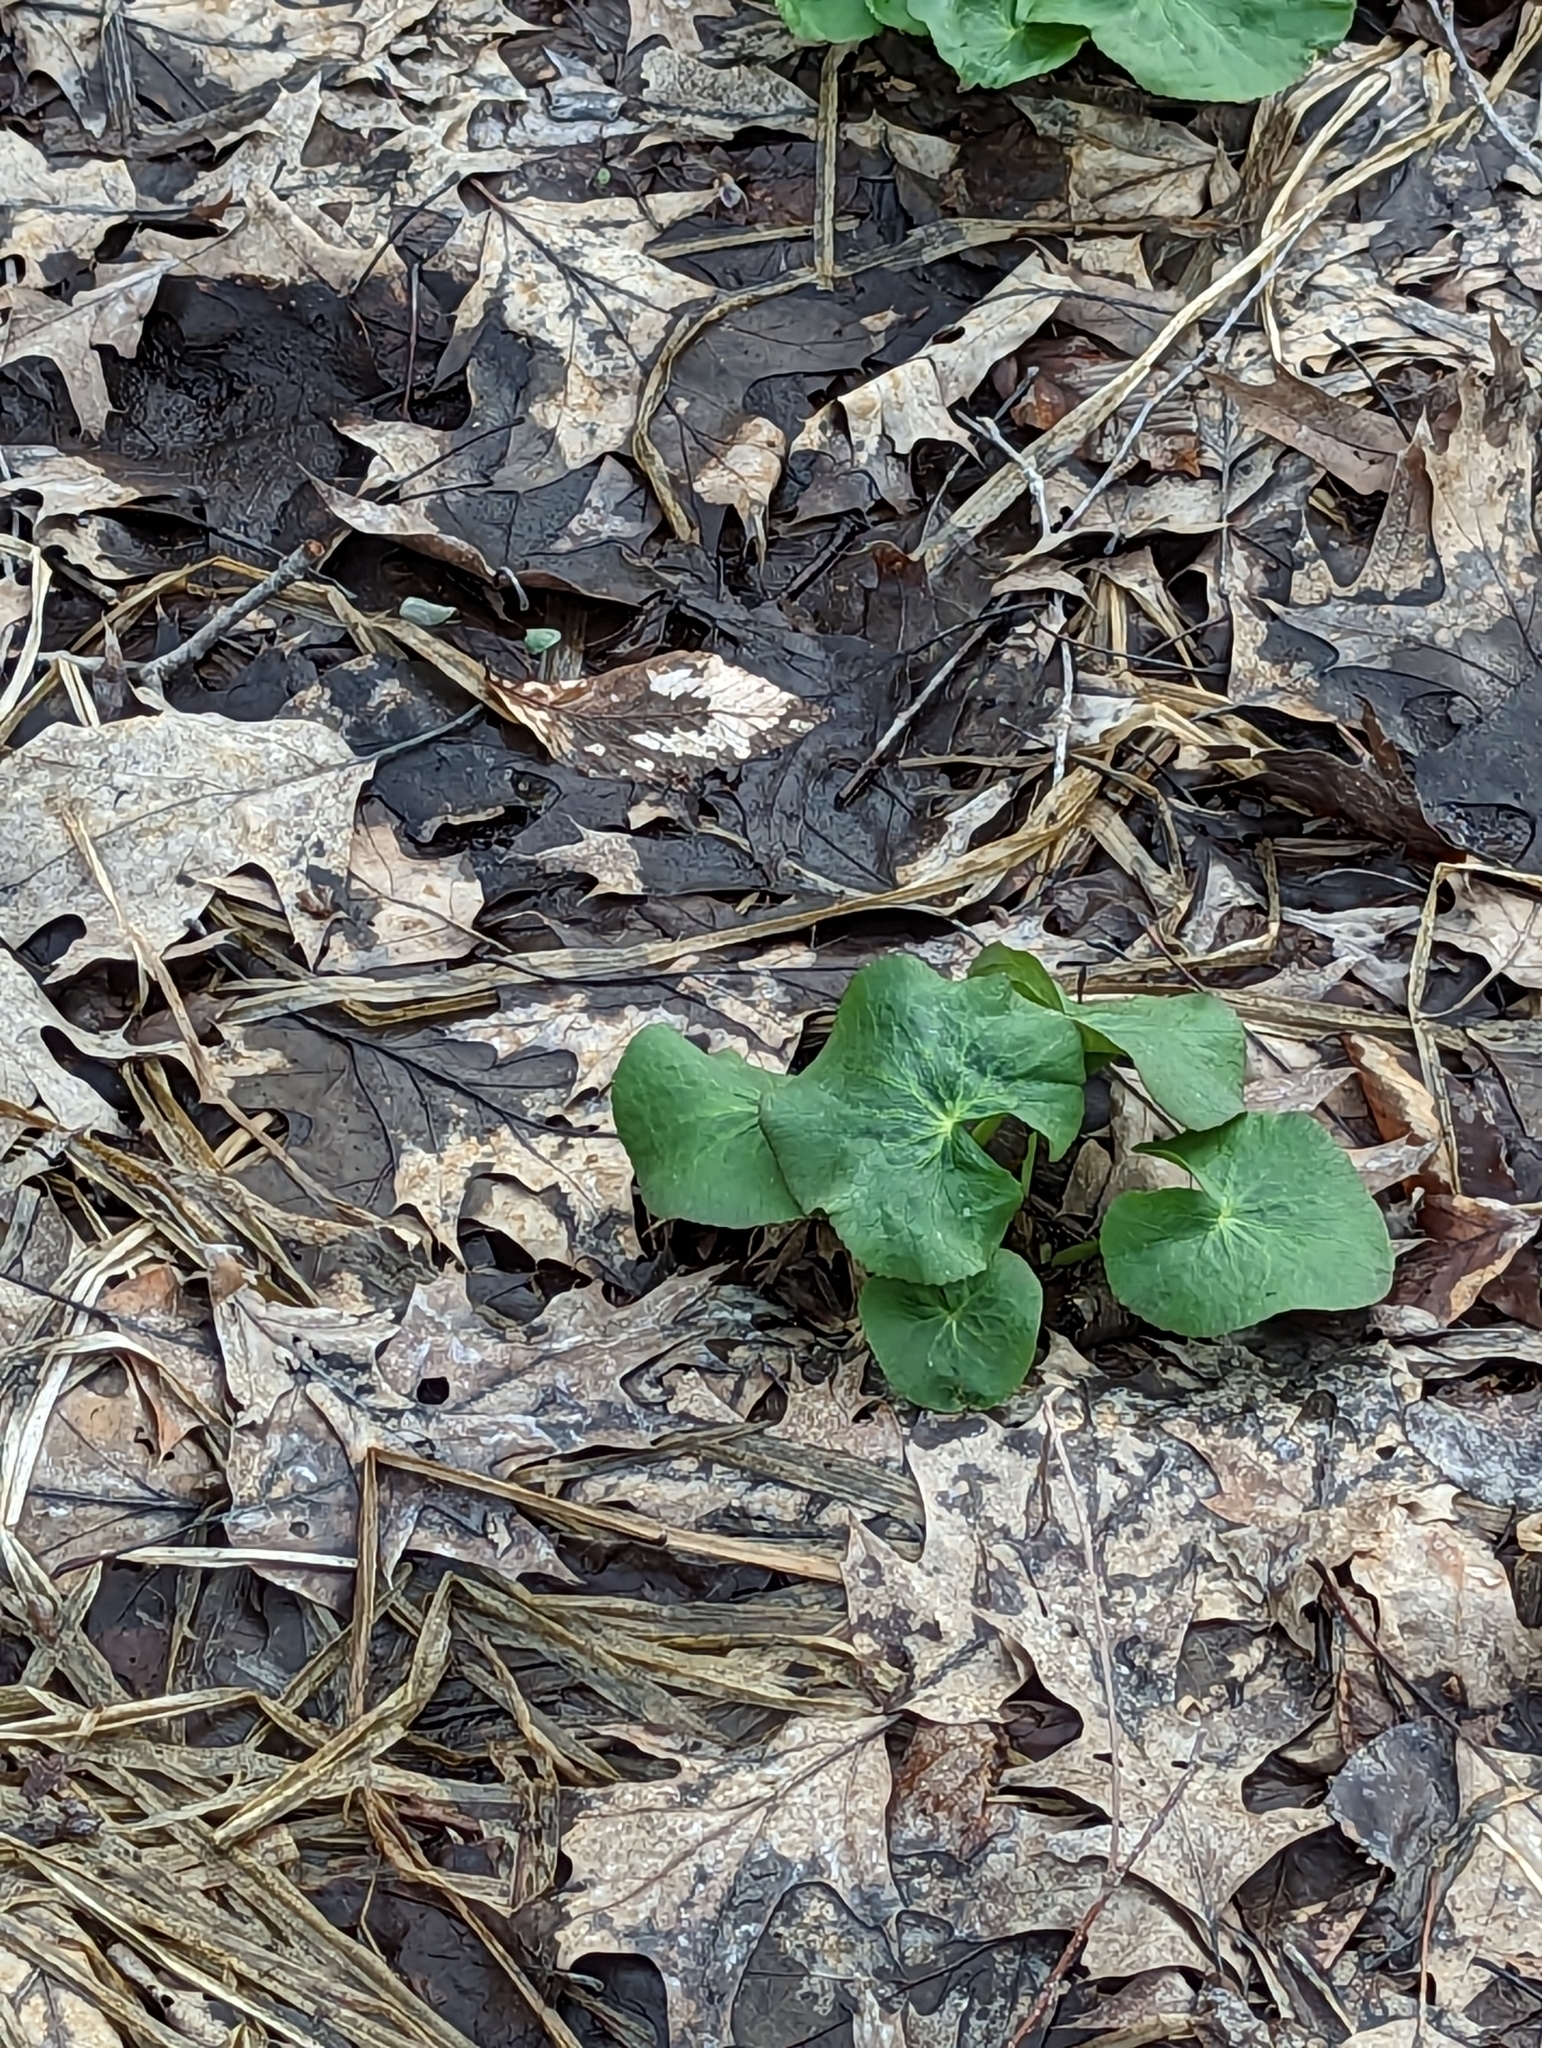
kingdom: Plantae
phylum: Tracheophyta
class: Magnoliopsida
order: Ranunculales
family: Ranunculaceae
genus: Caltha
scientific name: Caltha palustris
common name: Marsh marigold
